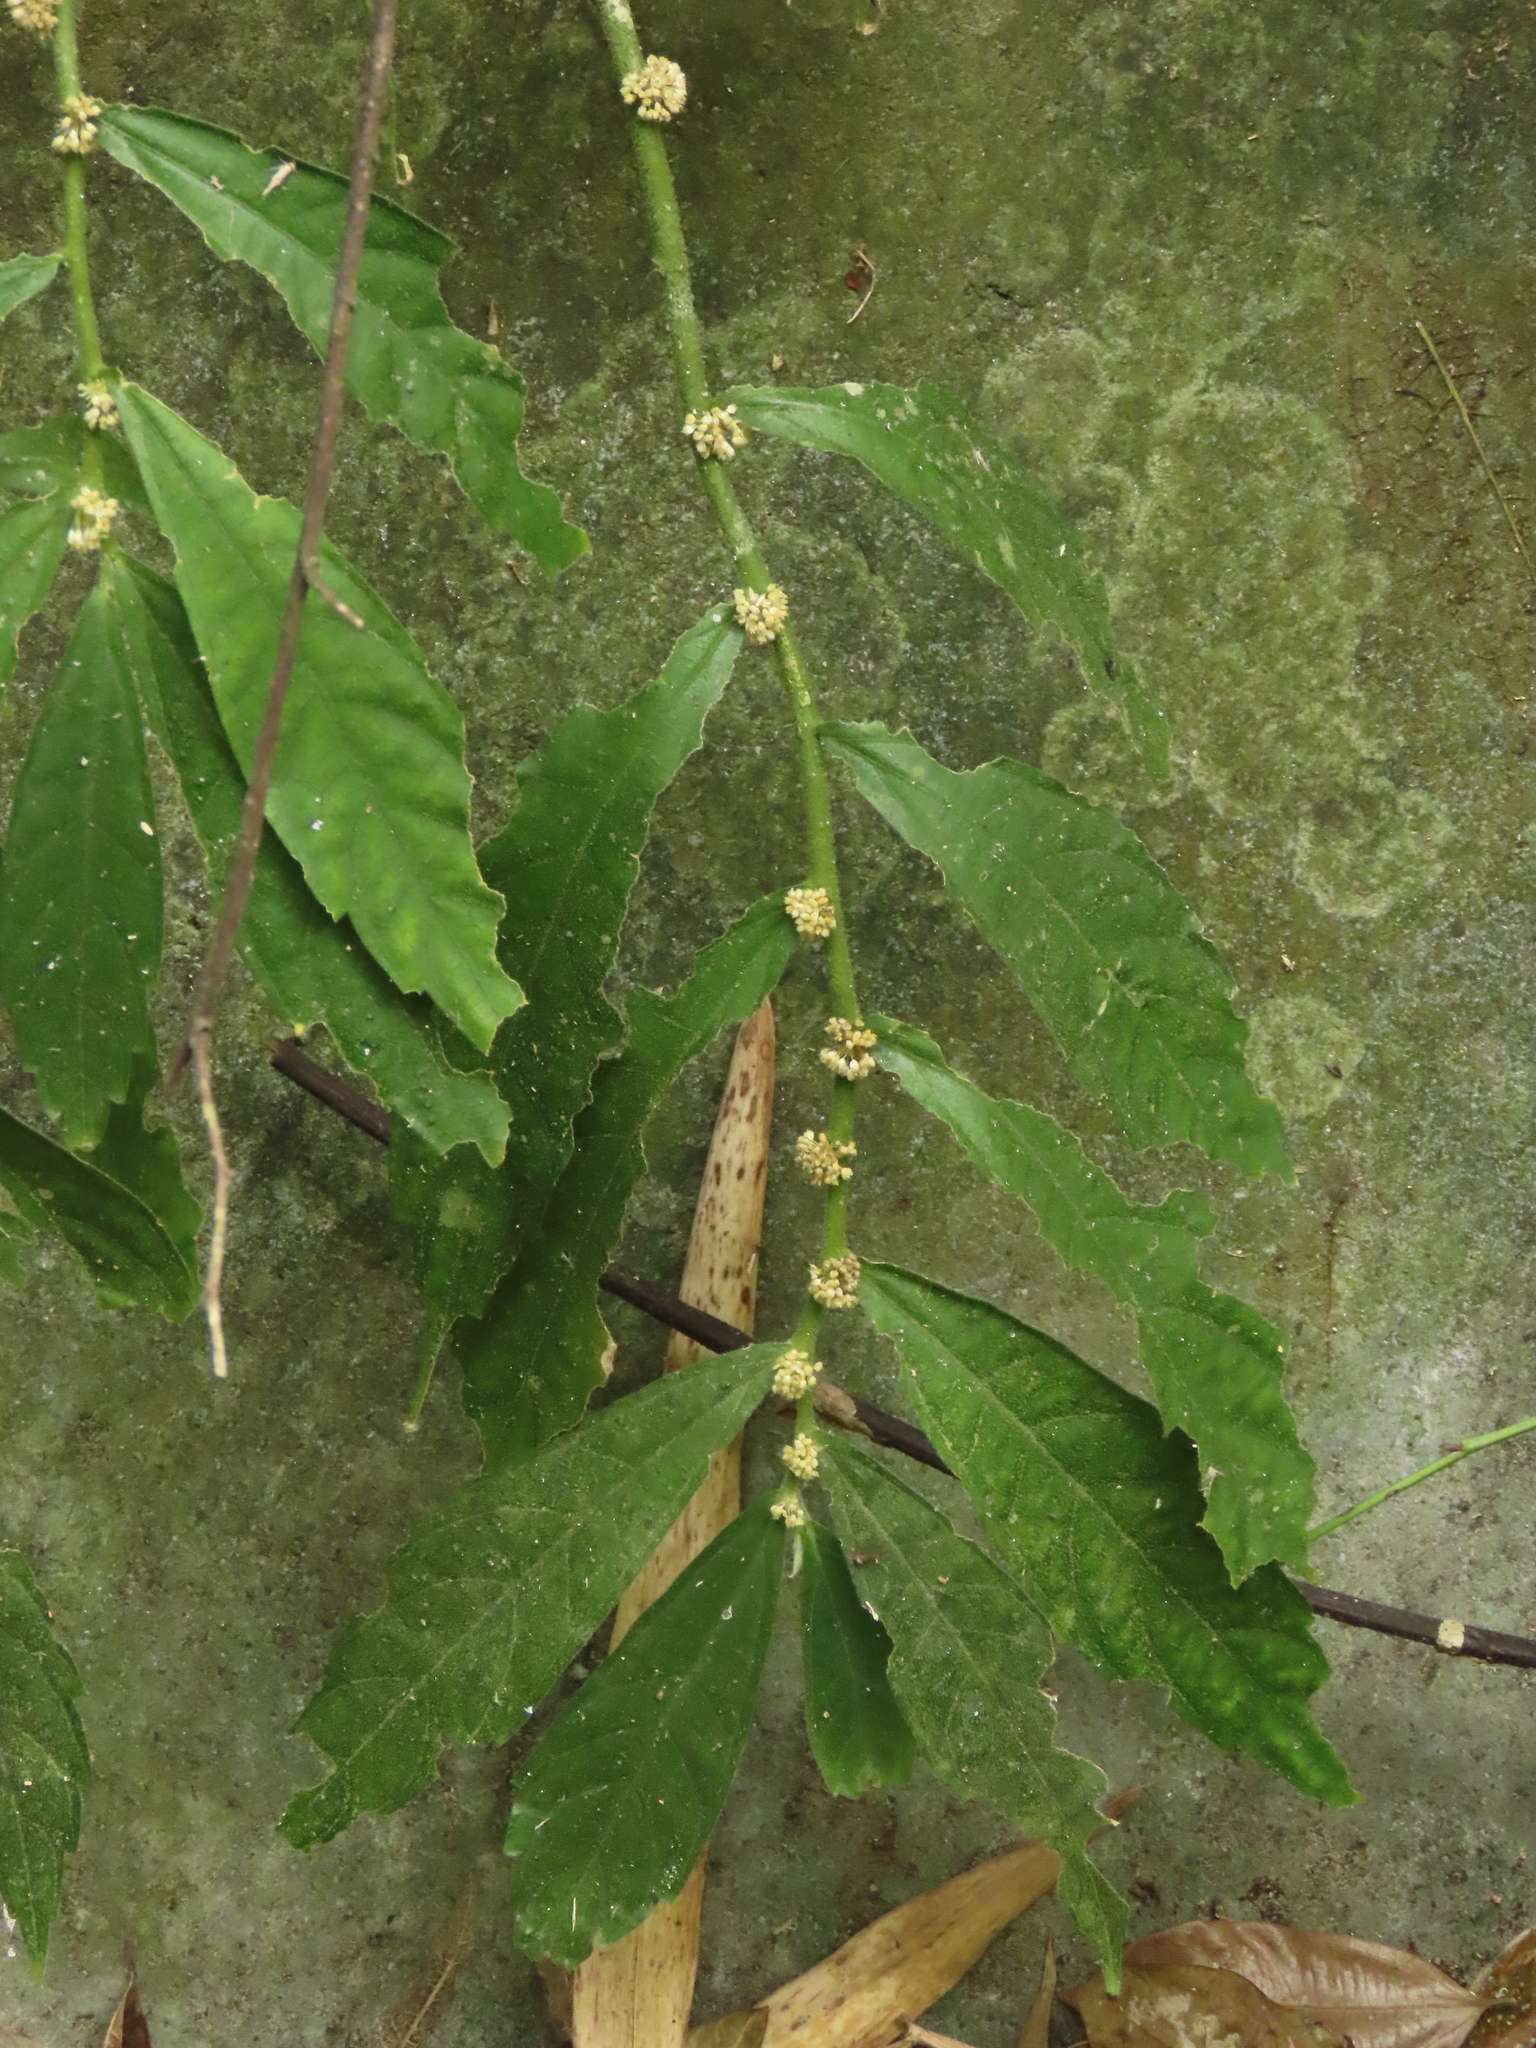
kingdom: Plantae
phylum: Tracheophyta
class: Magnoliopsida
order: Rosales
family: Urticaceae
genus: Elatostema
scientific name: Elatostema lineolatum
